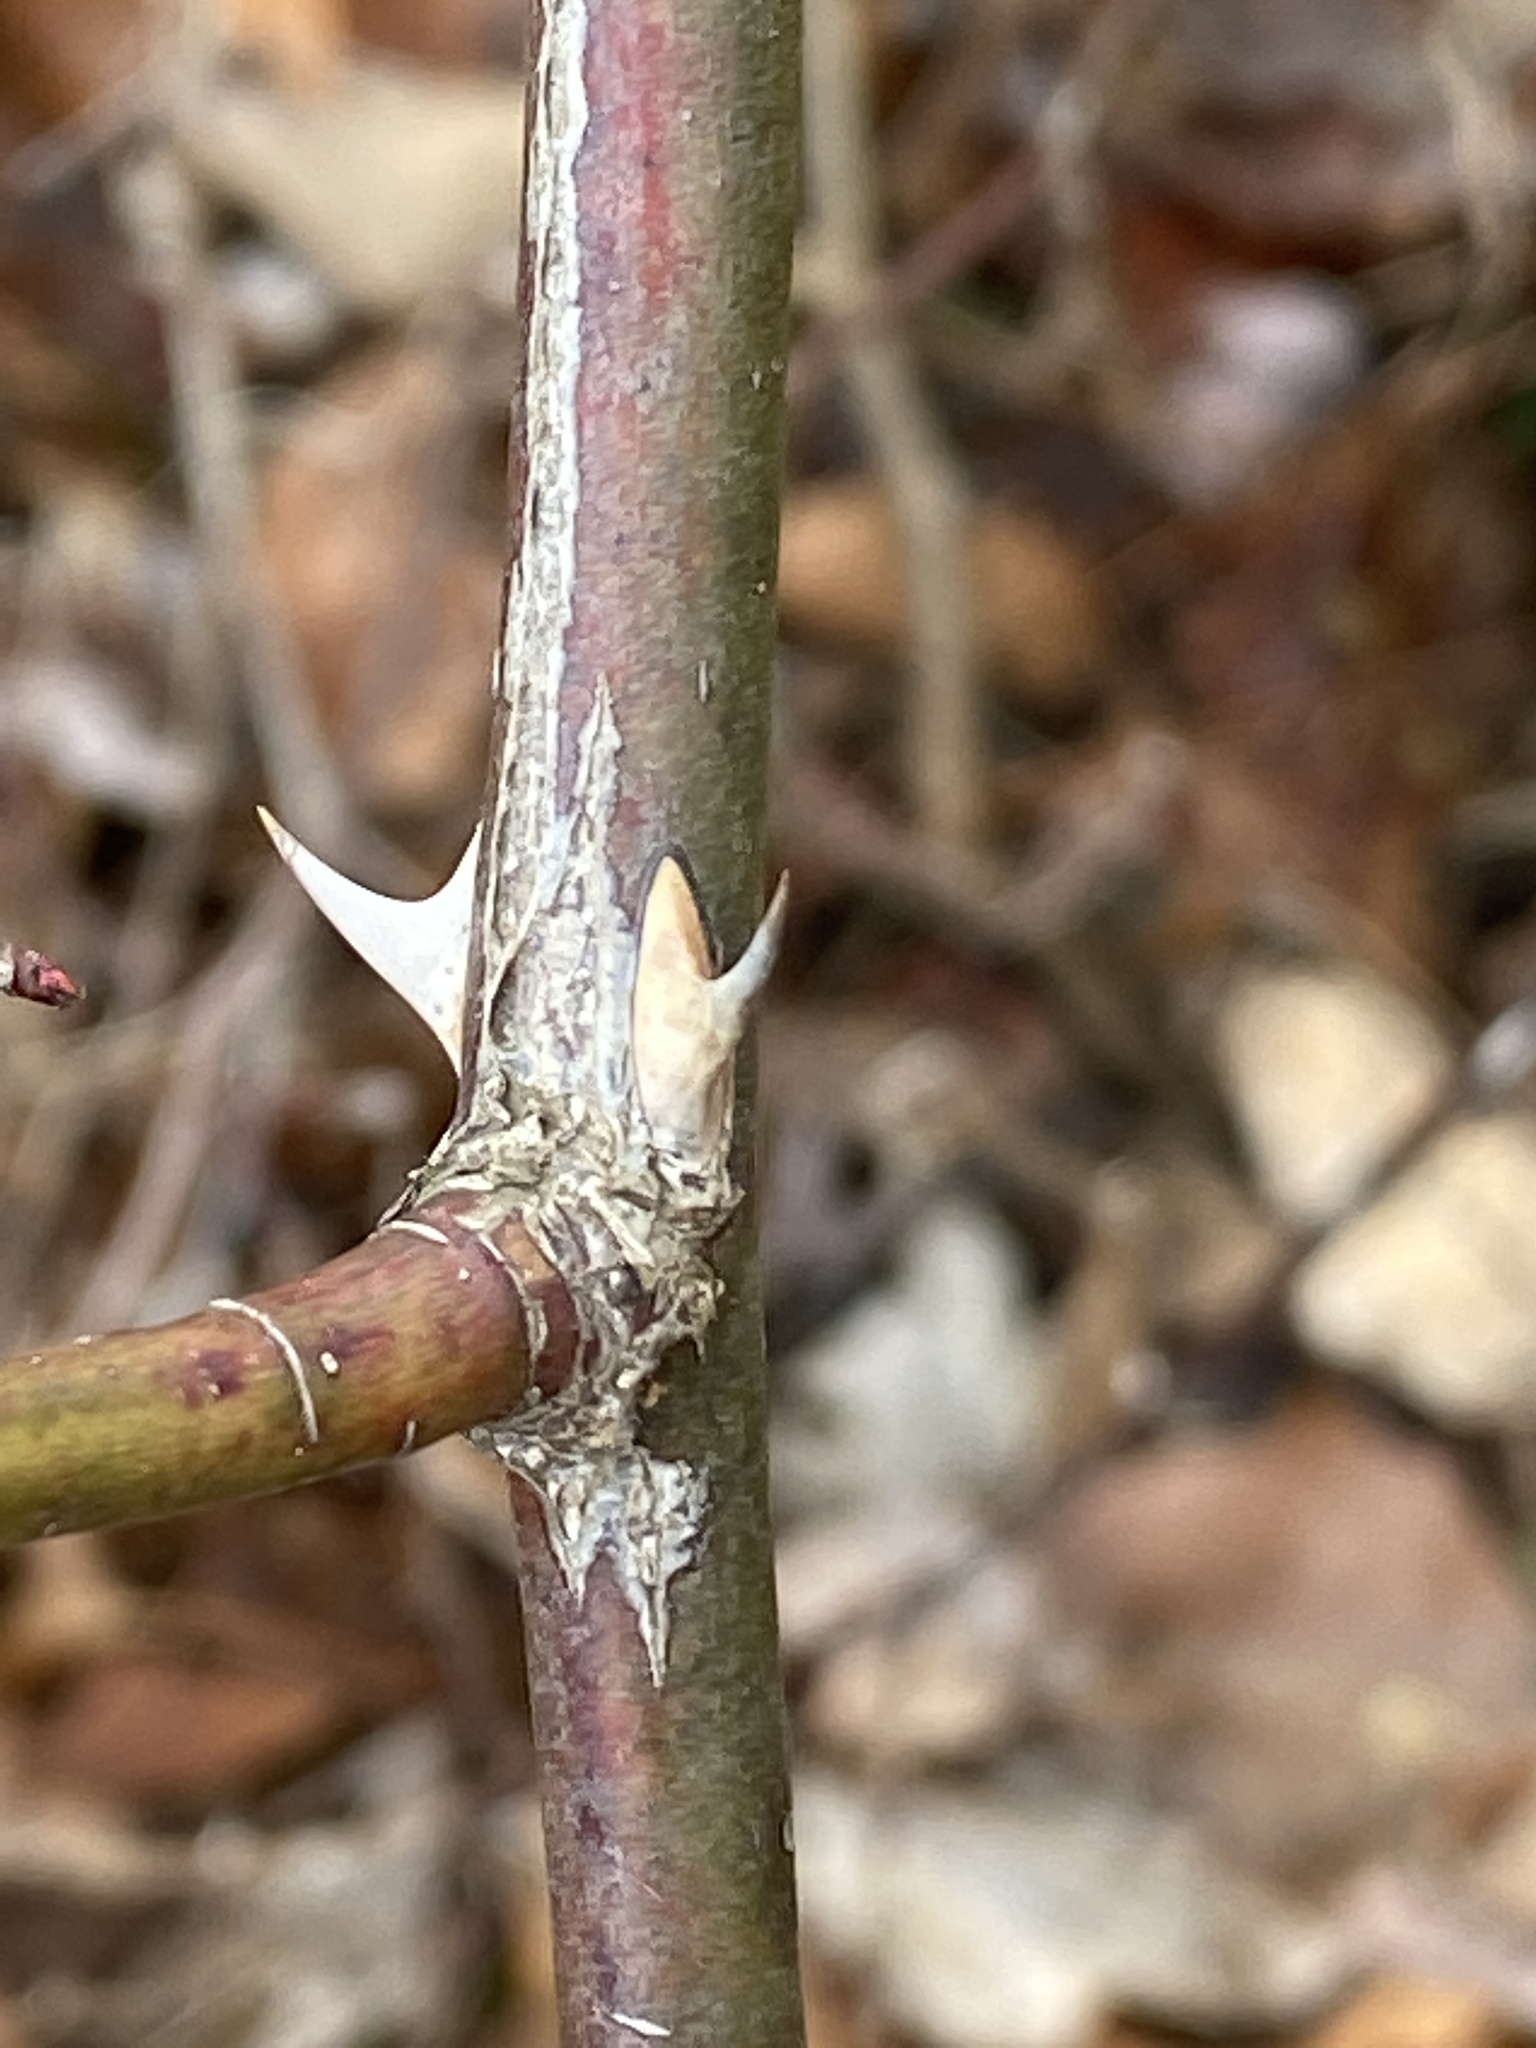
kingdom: Plantae
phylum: Tracheophyta
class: Magnoliopsida
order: Rosales
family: Rosaceae
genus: Rosa
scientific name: Rosa multiflora
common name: Multiflora rose
